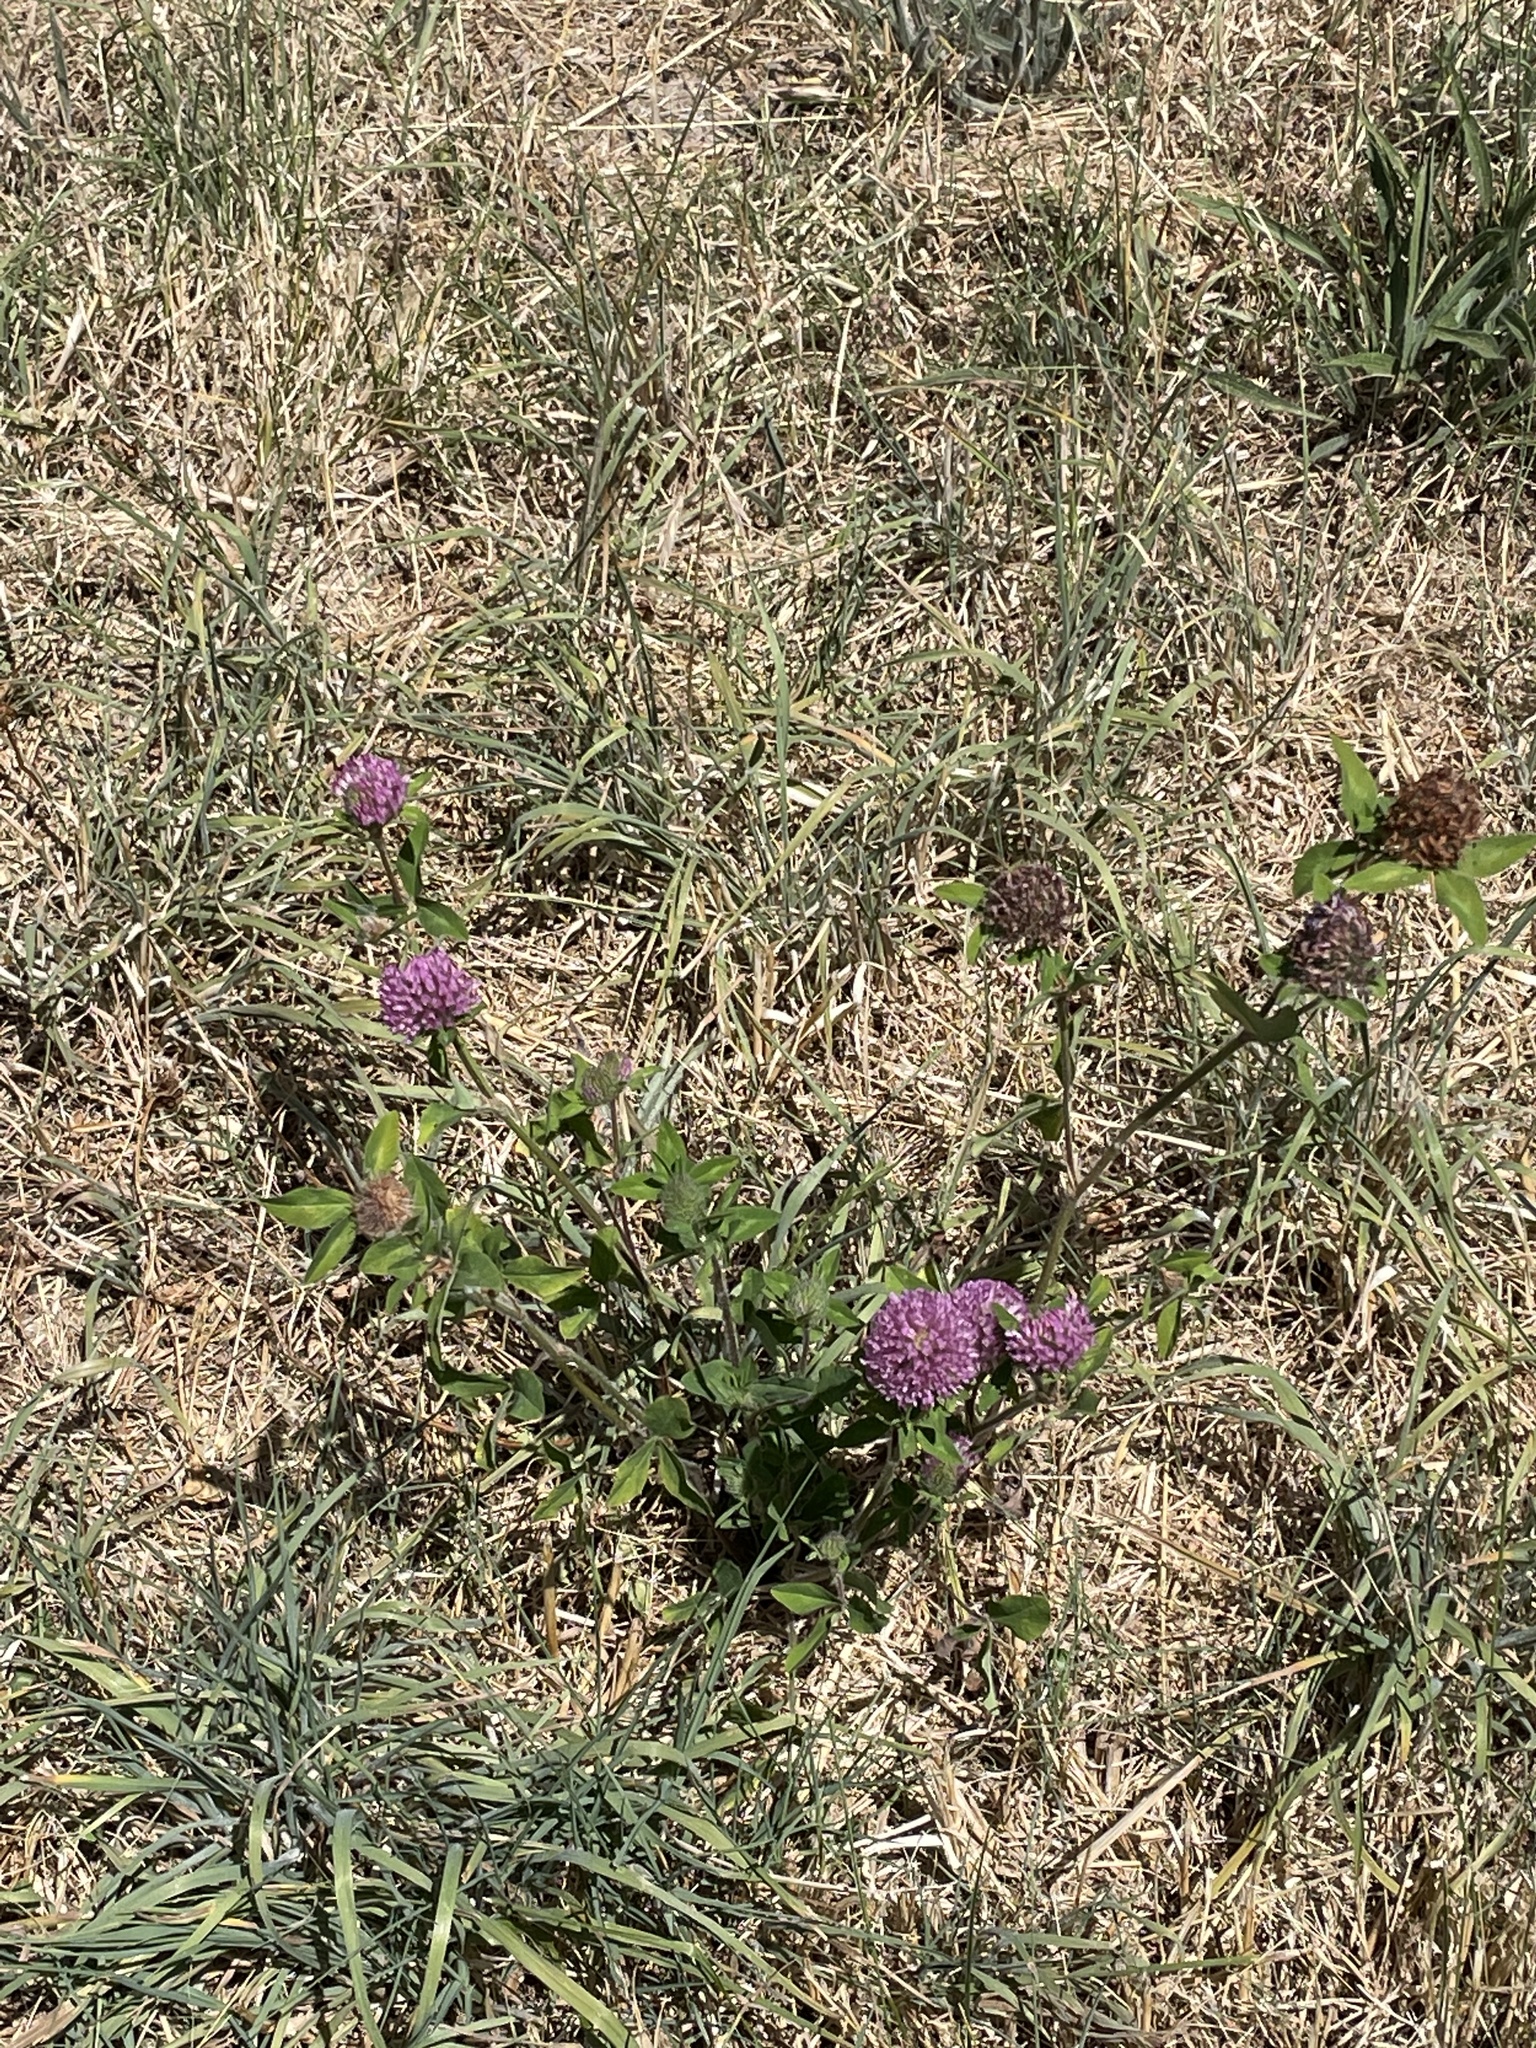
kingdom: Plantae
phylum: Tracheophyta
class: Magnoliopsida
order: Fabales
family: Fabaceae
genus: Trifolium
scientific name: Trifolium pratense
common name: Red clover
